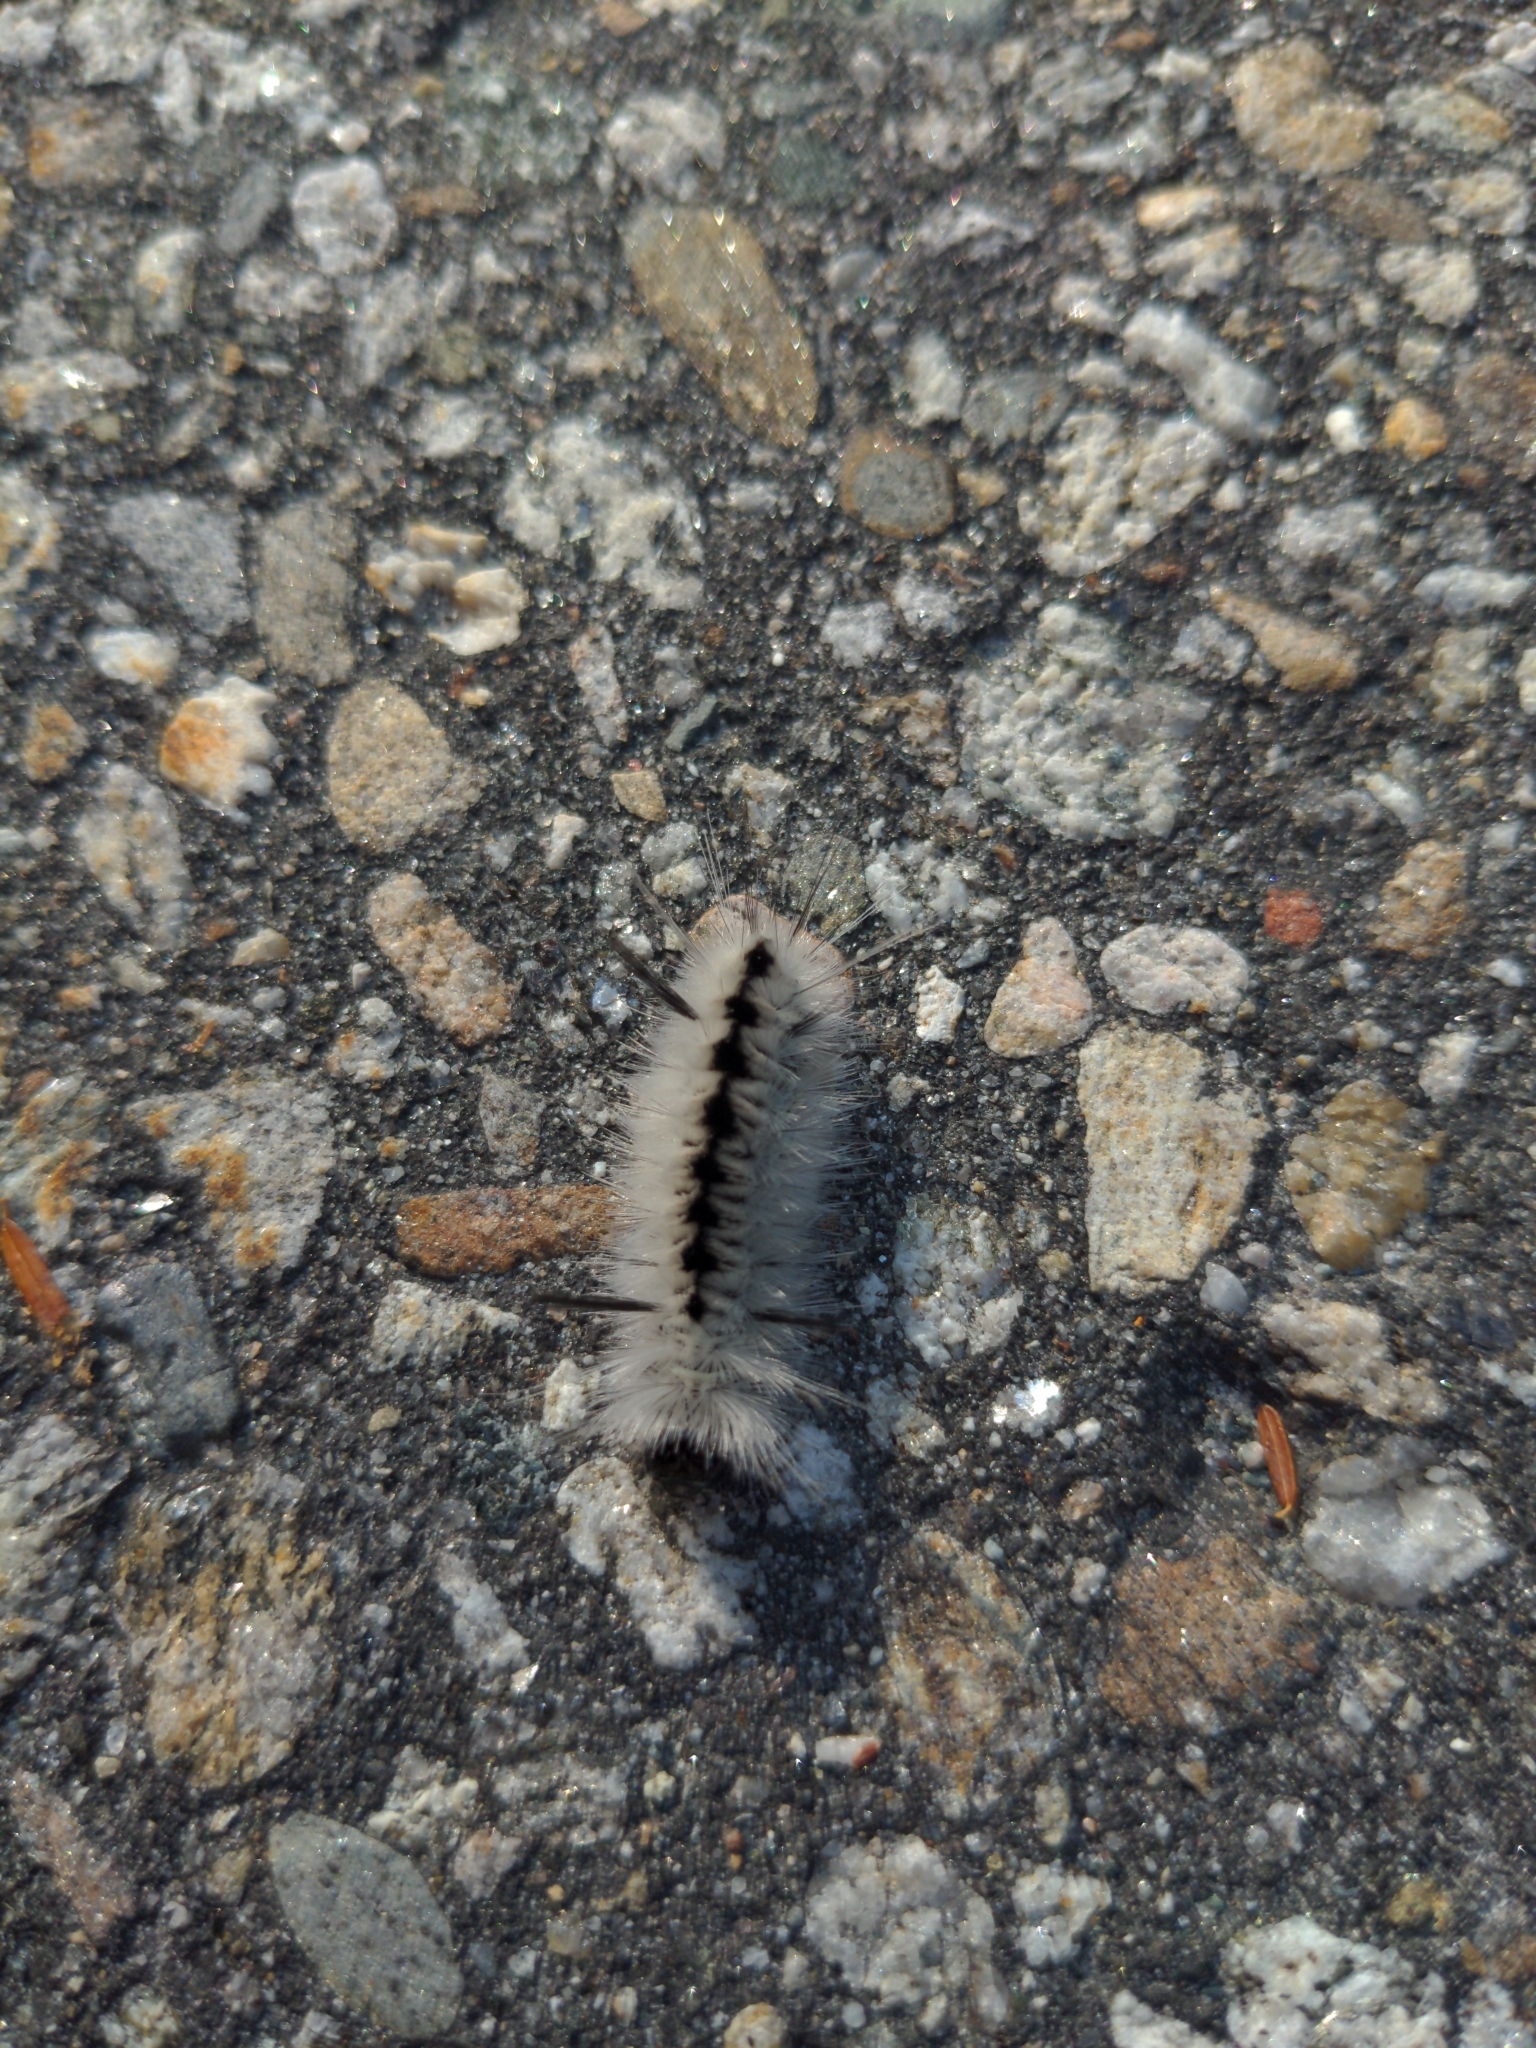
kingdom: Animalia
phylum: Arthropoda
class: Insecta
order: Lepidoptera
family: Erebidae
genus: Lophocampa
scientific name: Lophocampa caryae
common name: Hickory tussock moth
